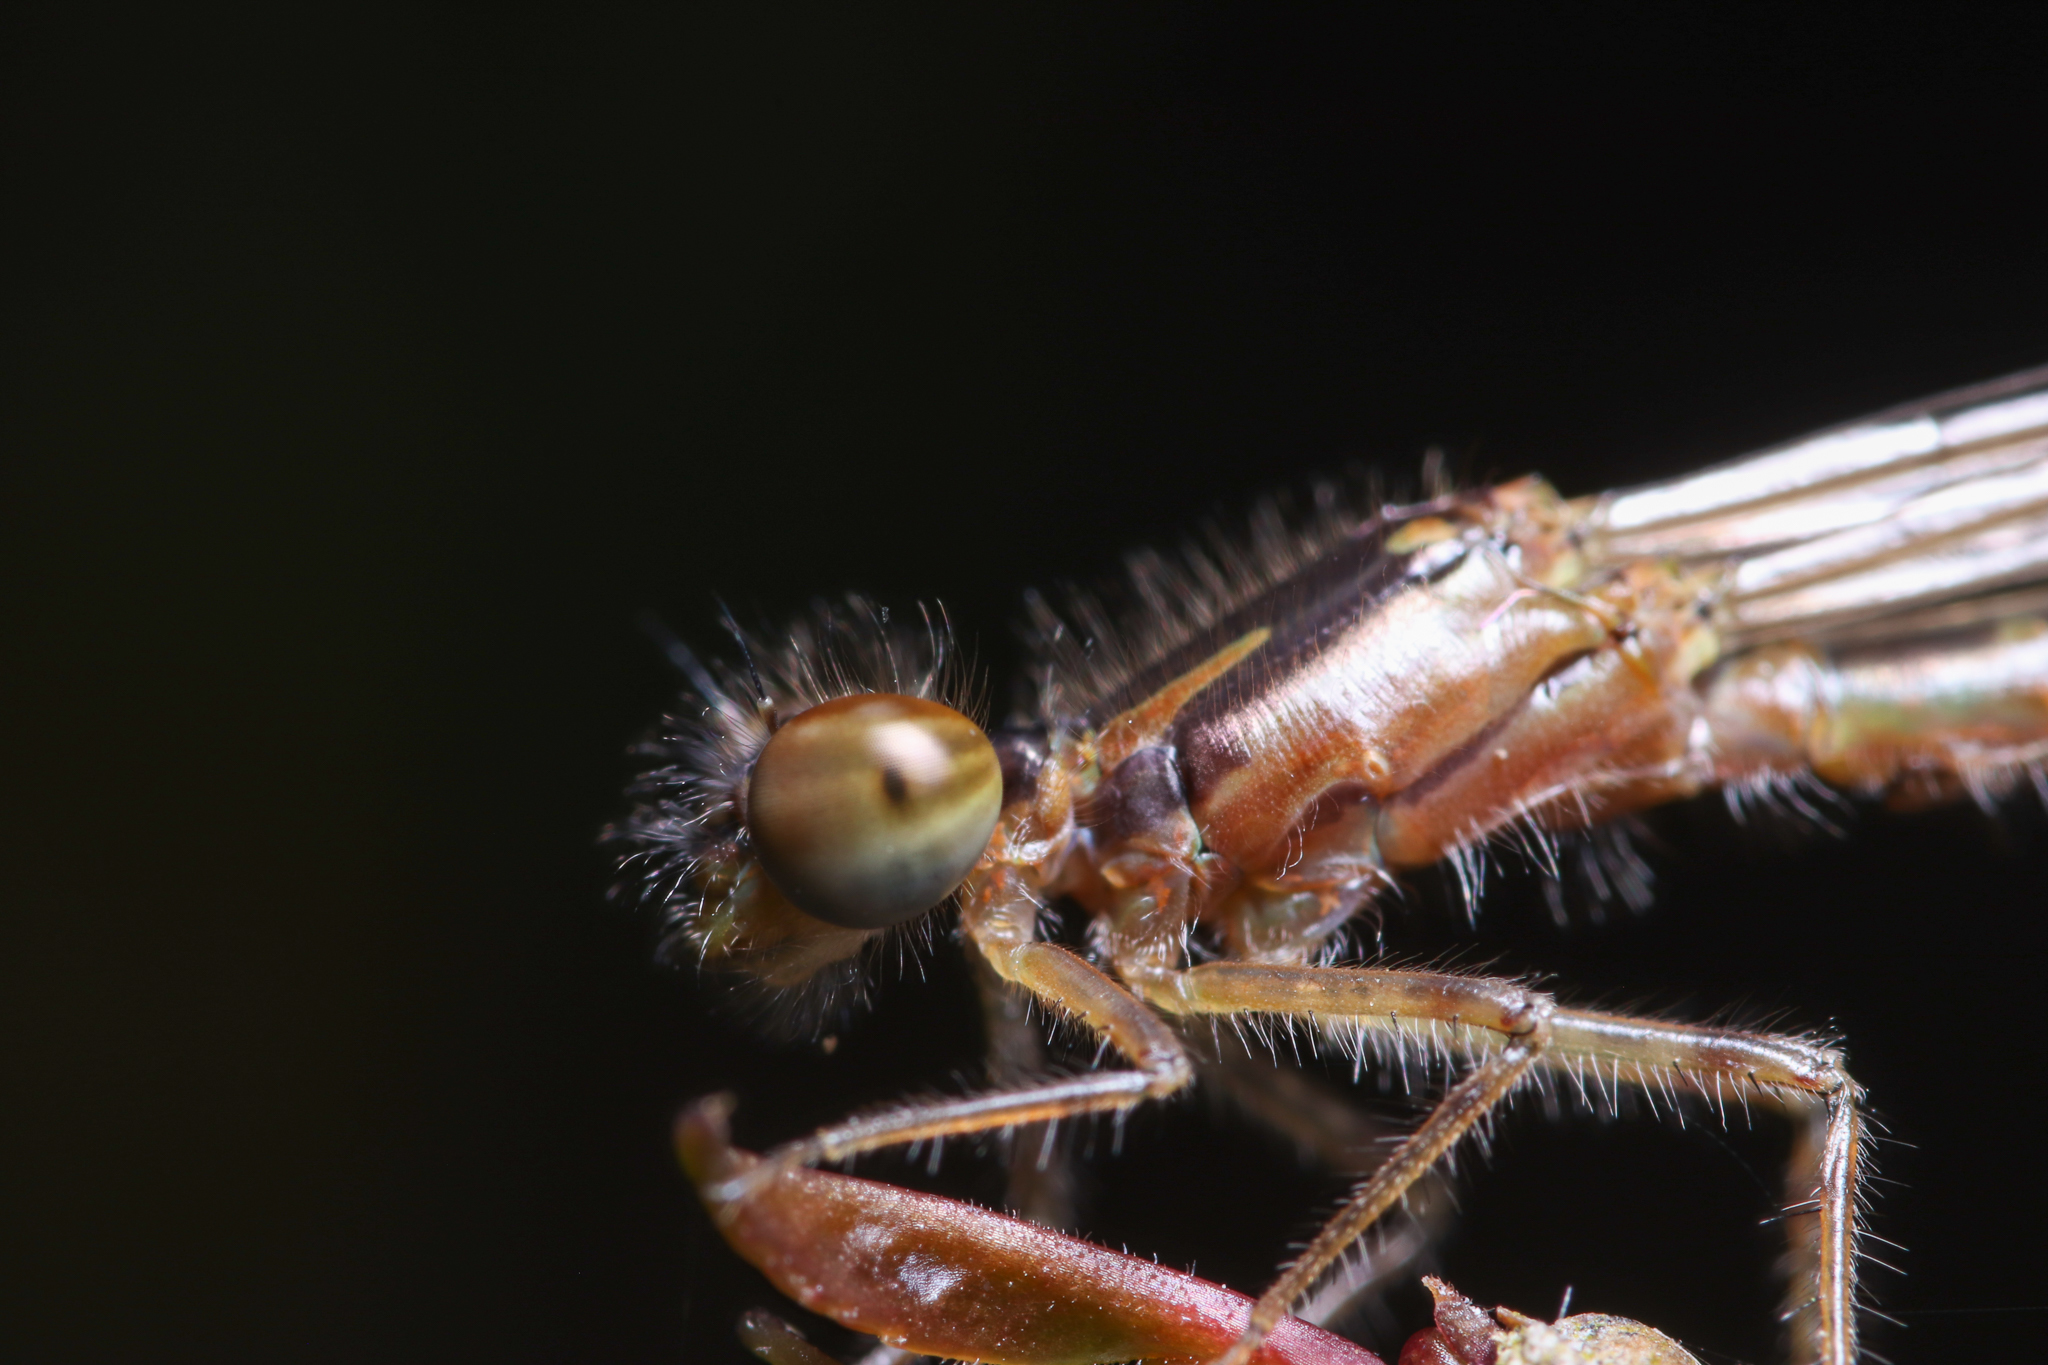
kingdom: Animalia
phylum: Arthropoda
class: Insecta
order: Odonata
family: Coenagrionidae
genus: Ischnura
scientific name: Ischnura posita
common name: Fragile forktail
